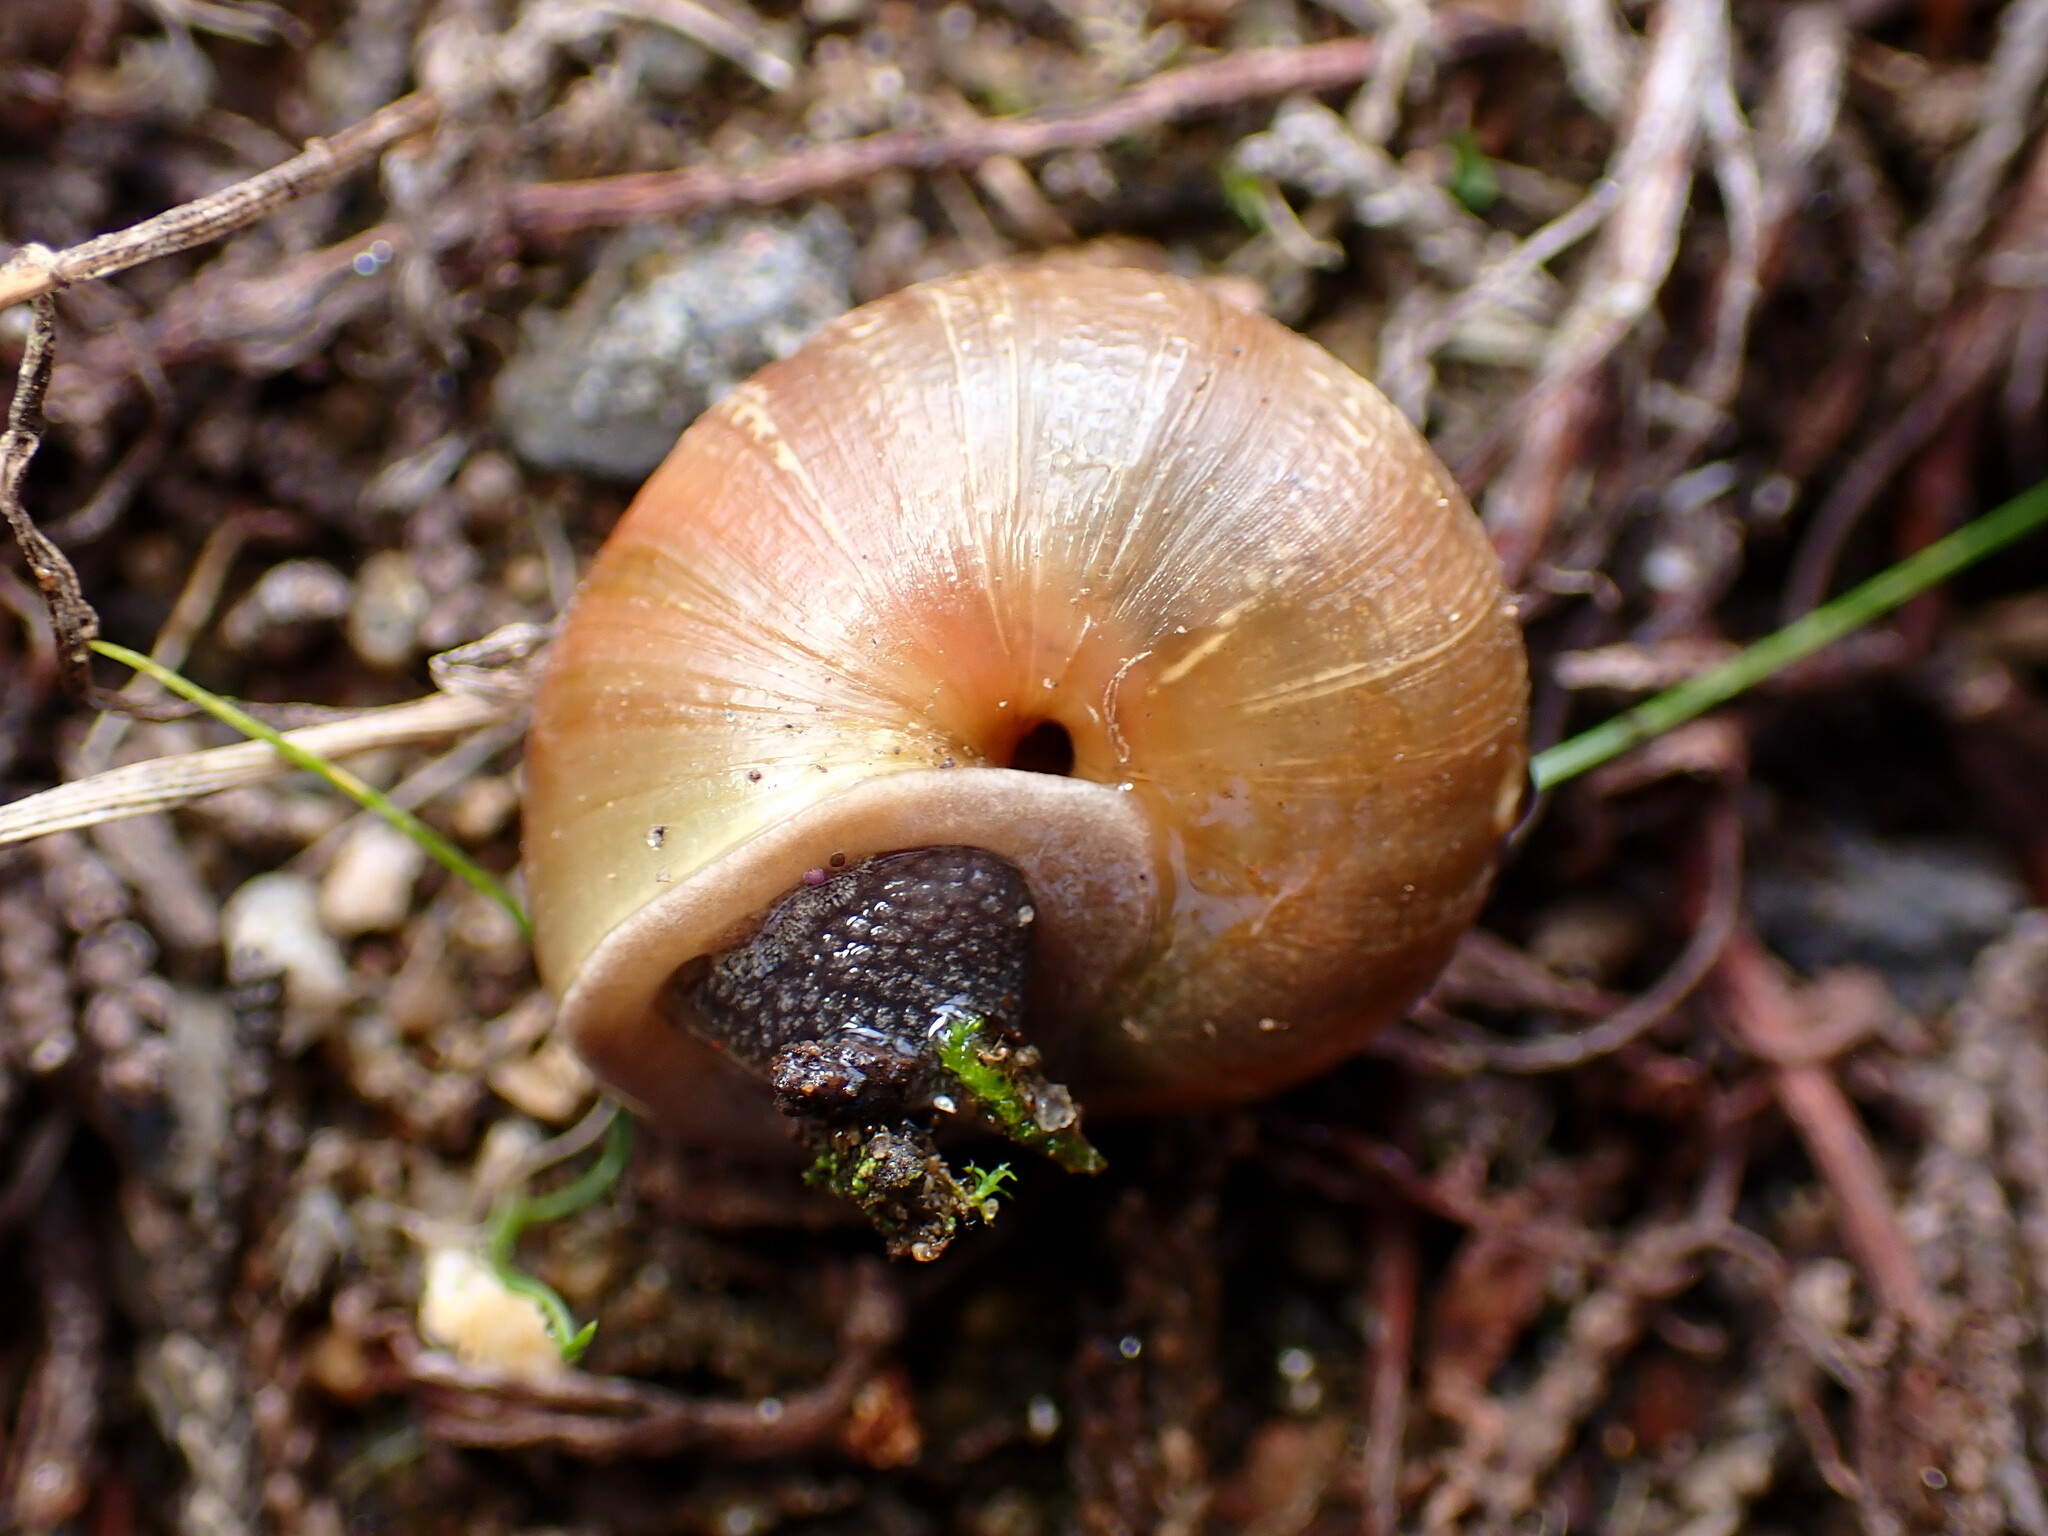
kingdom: Animalia
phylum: Mollusca
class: Gastropoda
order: Stylommatophora
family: Xanthonychidae
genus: Helminthoglypta
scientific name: Helminthoglypta stiversiana
